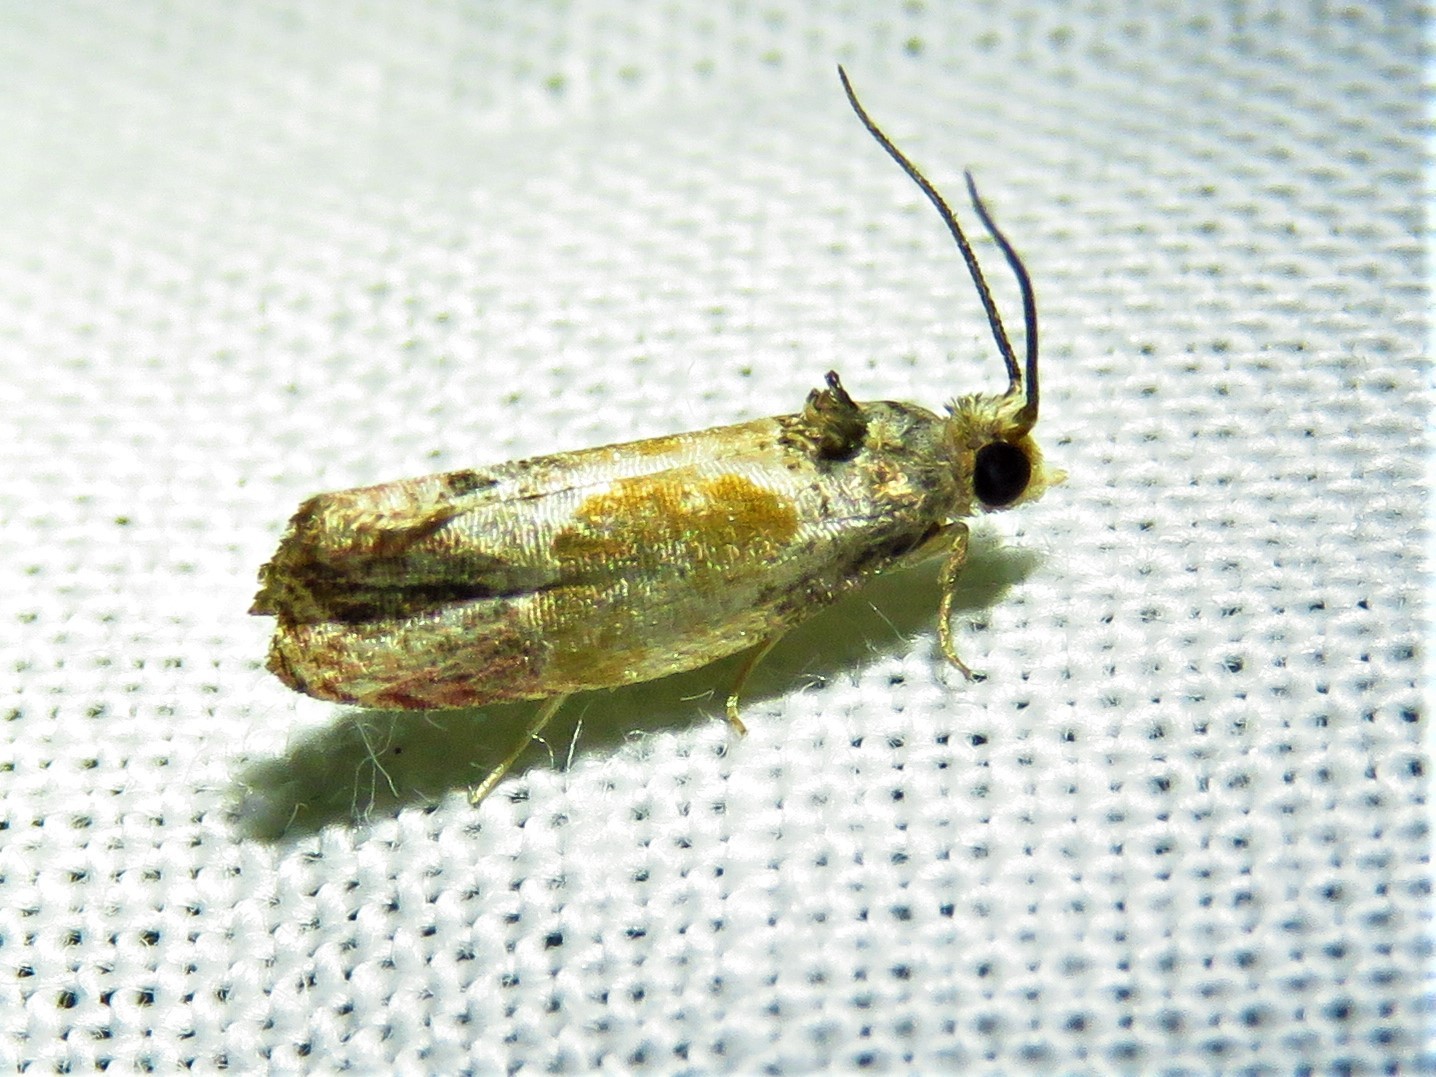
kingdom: Animalia
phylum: Arthropoda
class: Insecta
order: Lepidoptera
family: Tortricidae
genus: Eumarozia
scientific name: Eumarozia malachitana
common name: Sculptured moth
